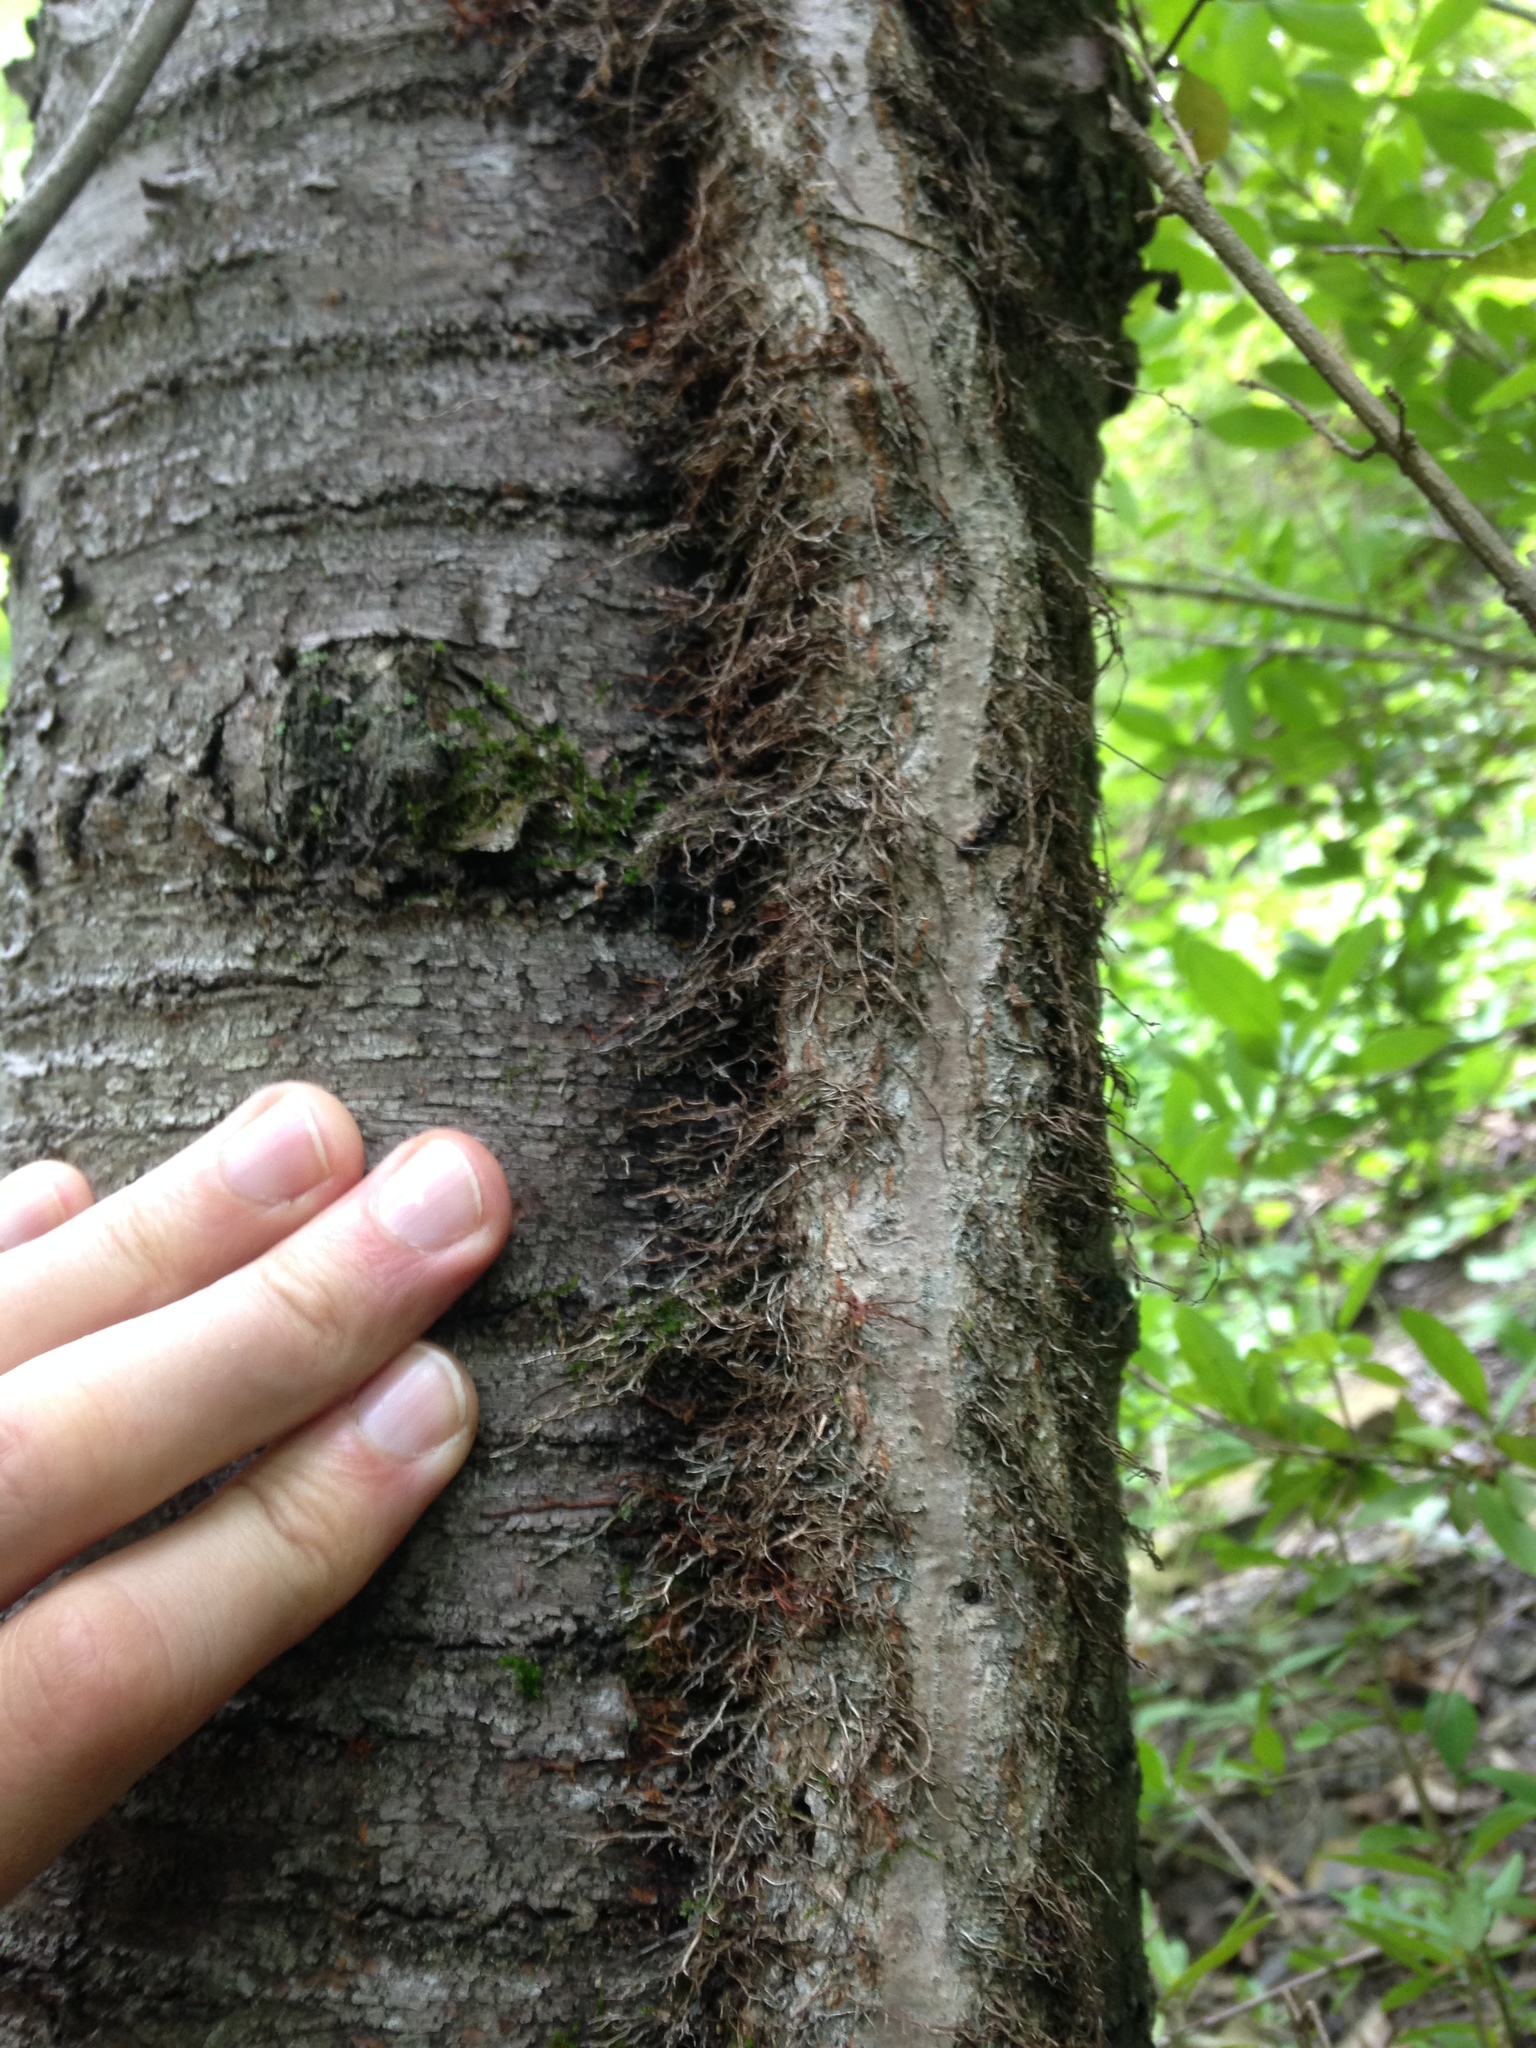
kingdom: Plantae
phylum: Tracheophyta
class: Magnoliopsida
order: Sapindales
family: Anacardiaceae
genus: Toxicodendron
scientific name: Toxicodendron radicans
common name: Poison ivy
